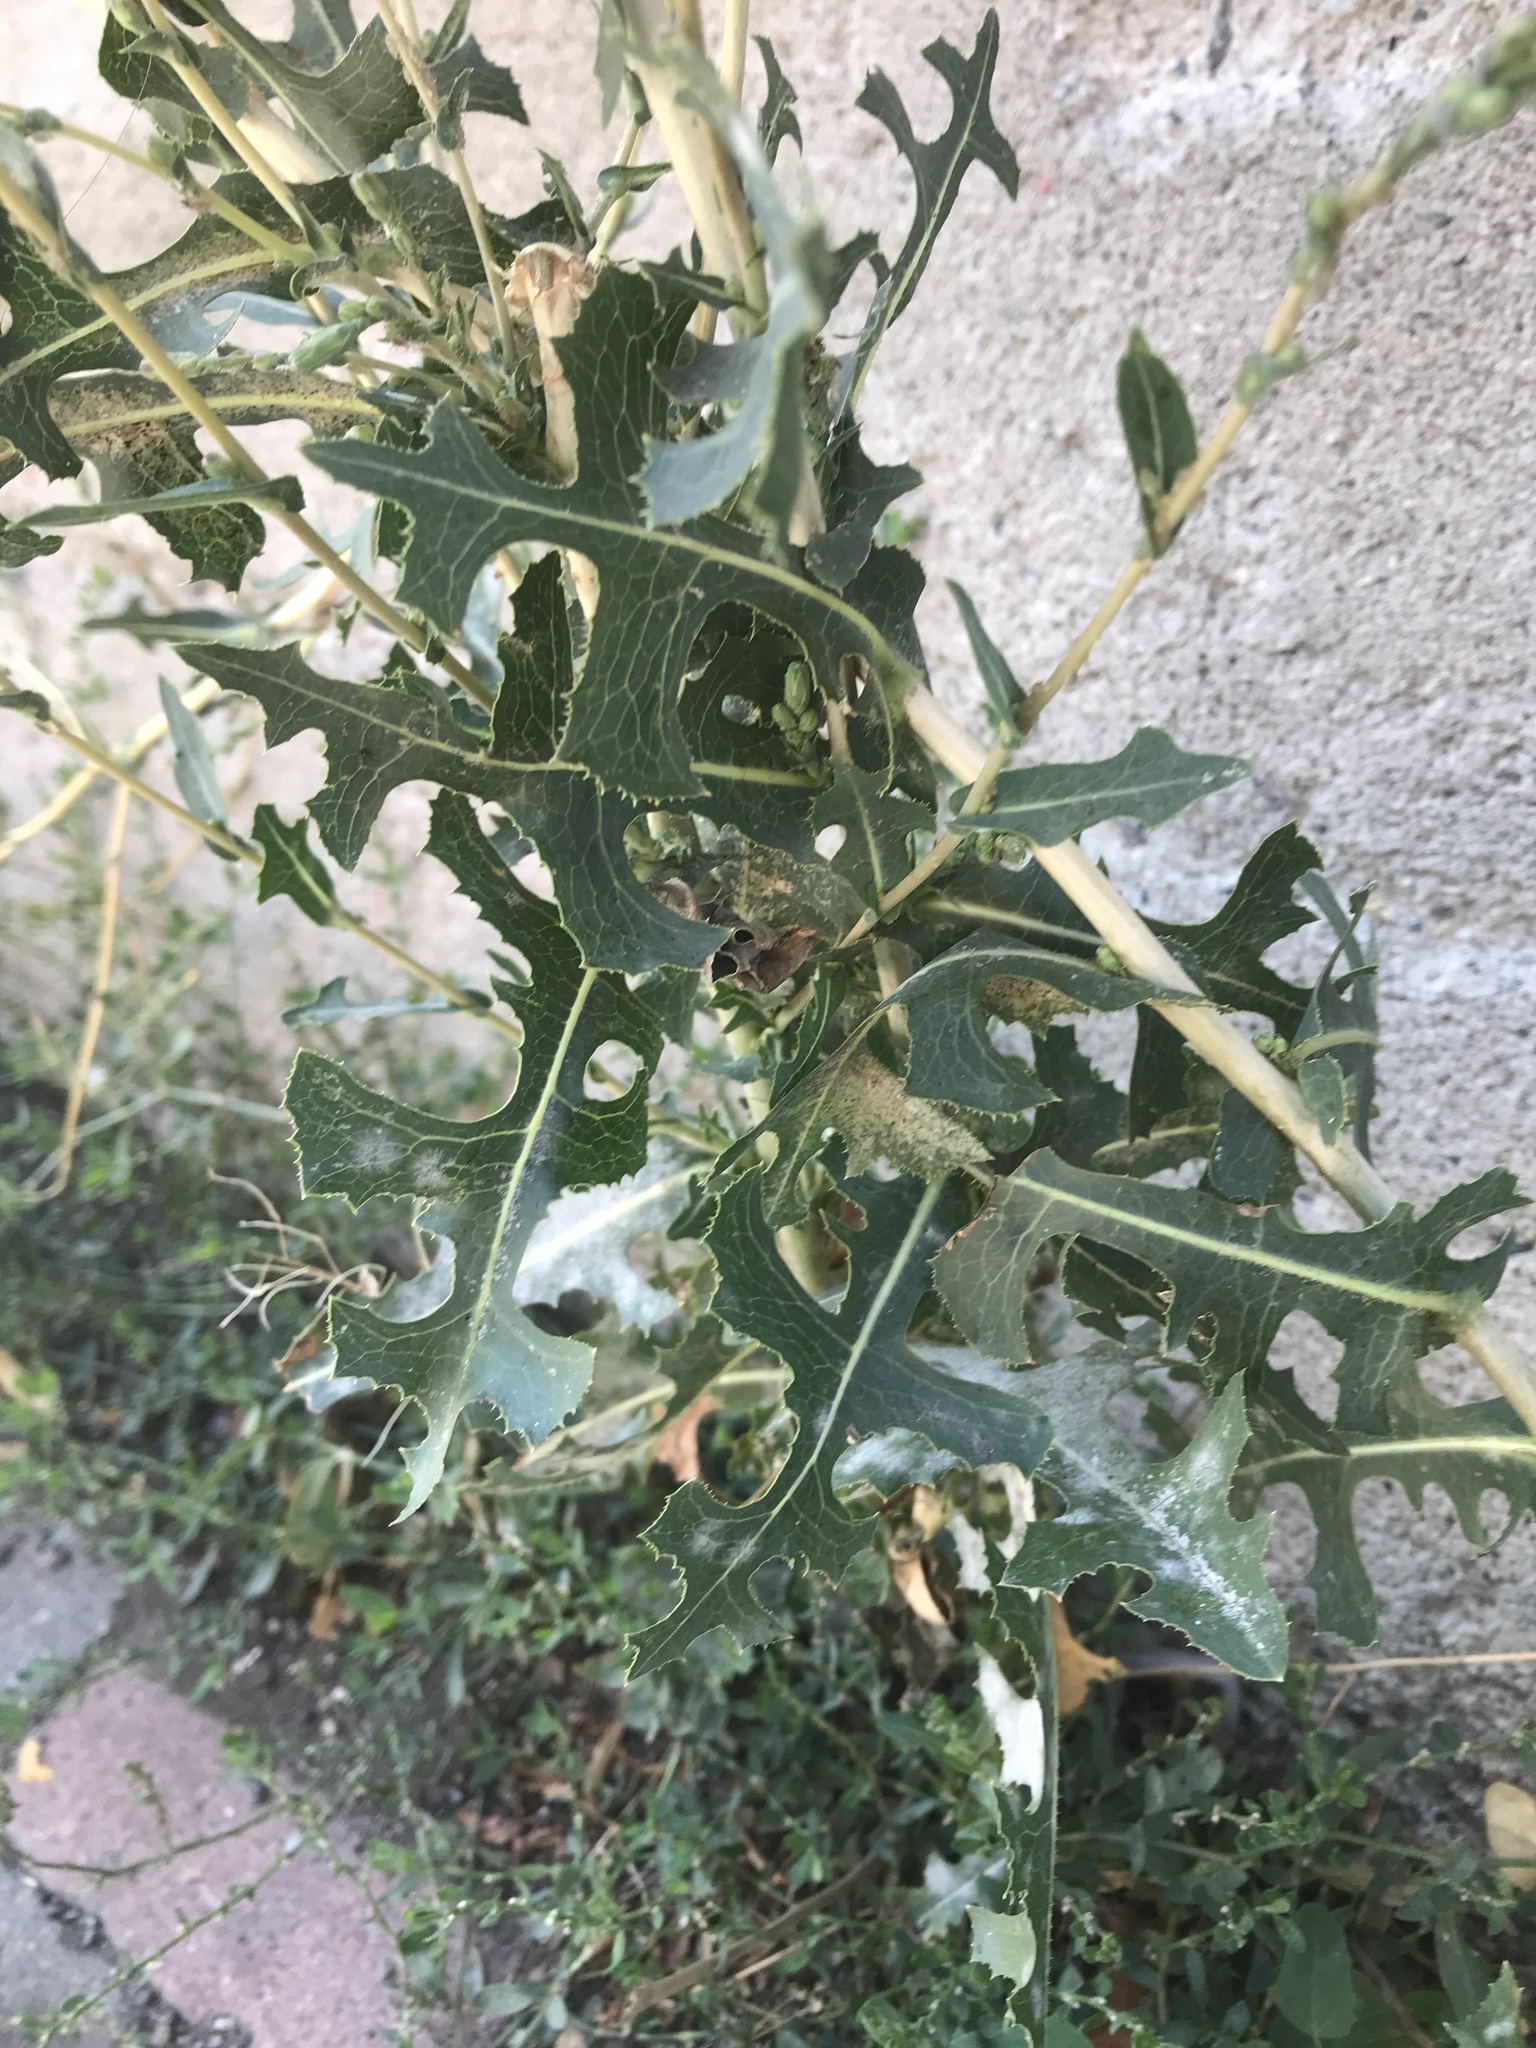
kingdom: Plantae
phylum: Tracheophyta
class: Magnoliopsida
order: Asterales
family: Asteraceae
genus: Lactuca
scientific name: Lactuca serriola
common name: Prickly lettuce
